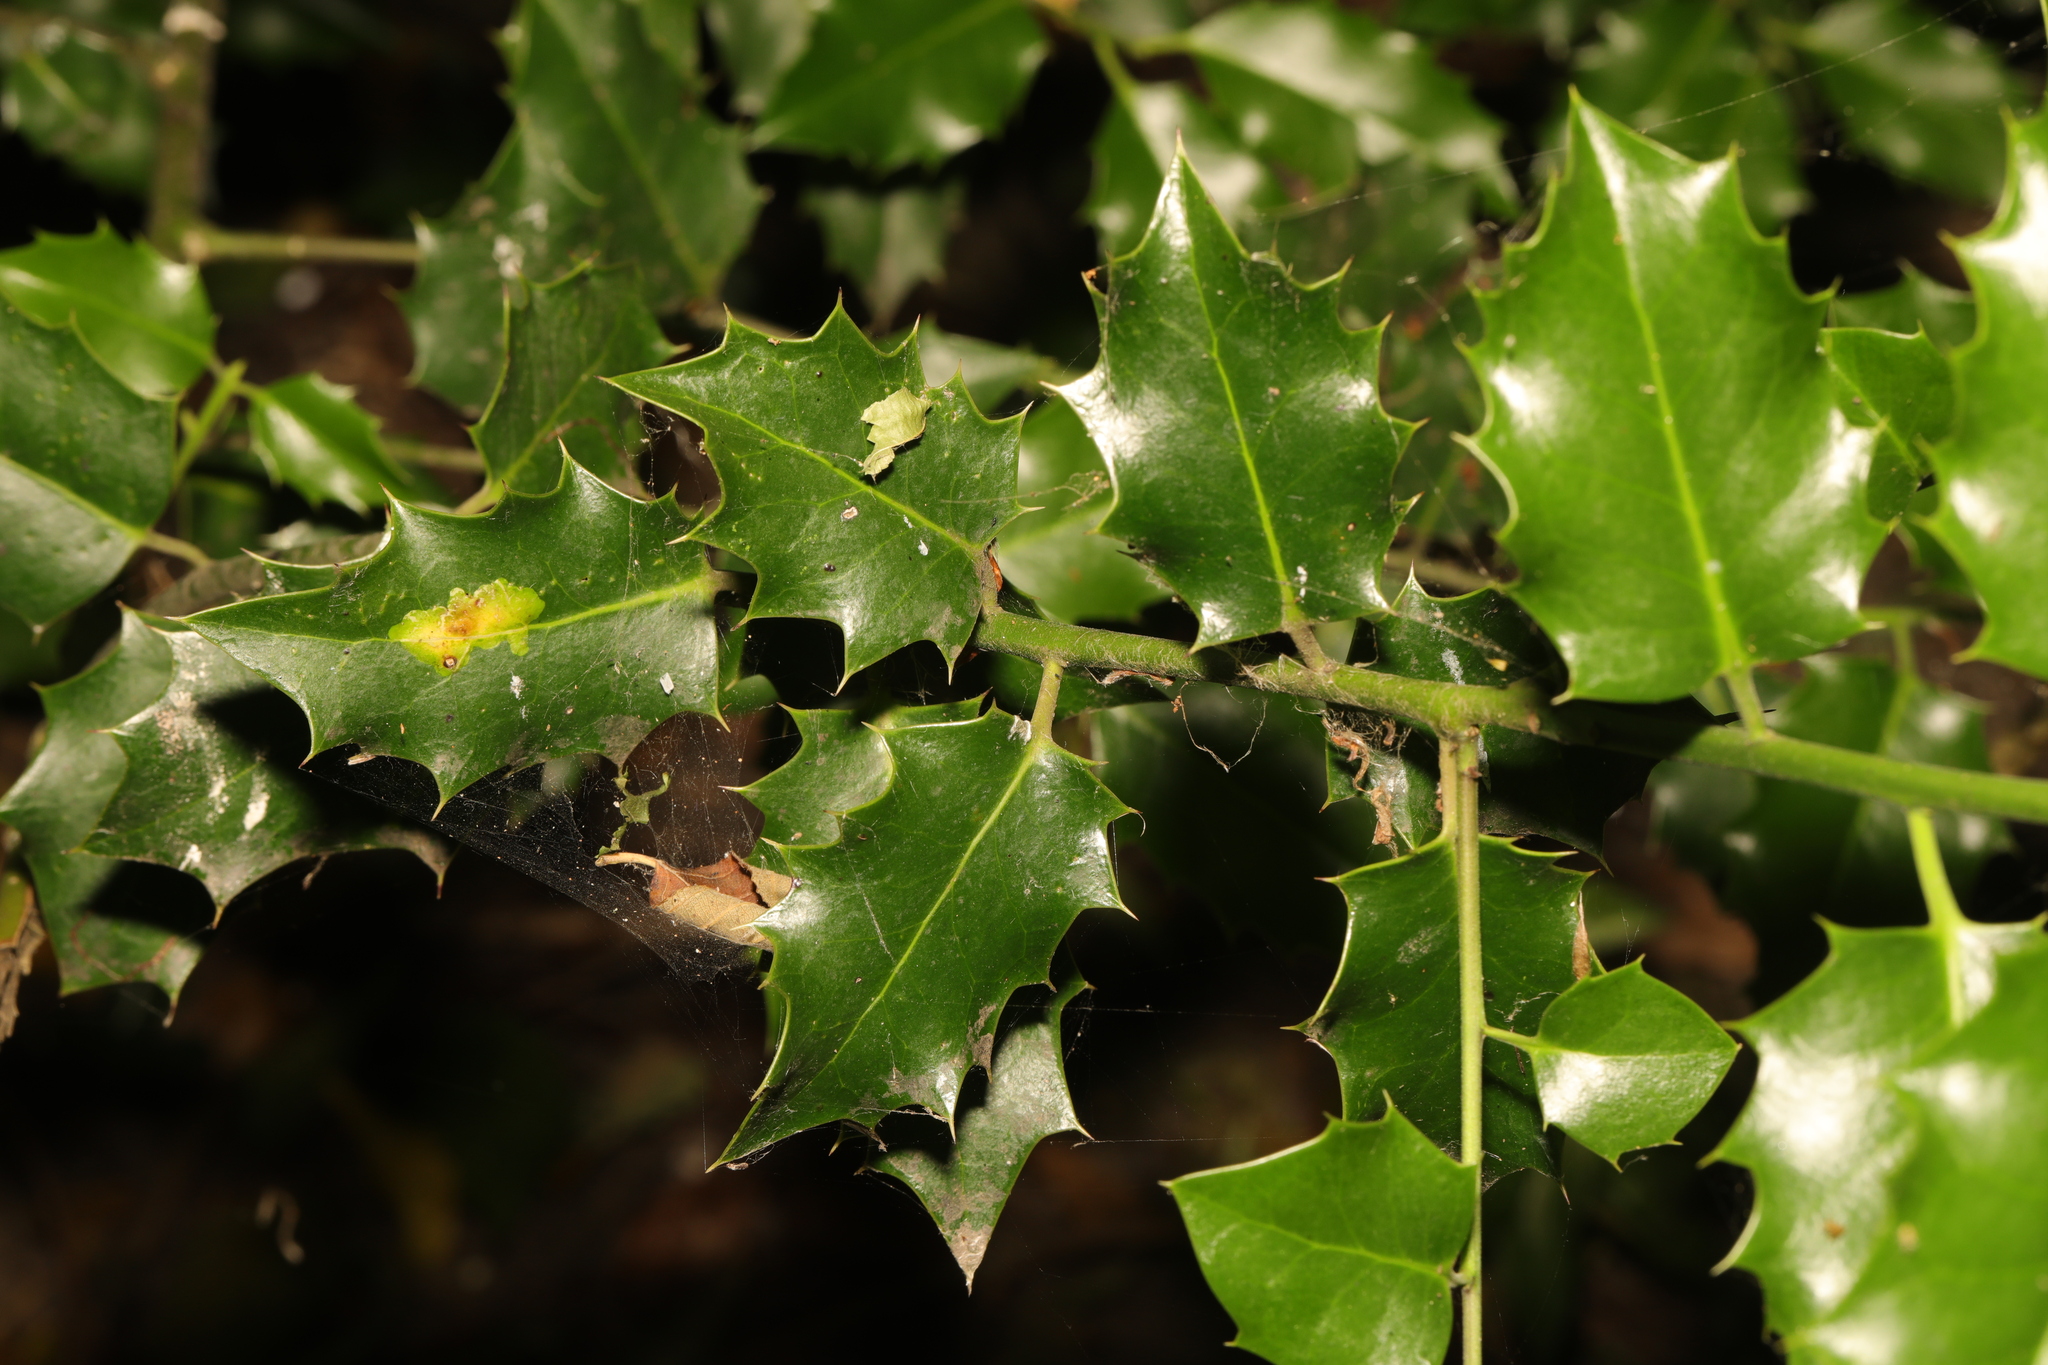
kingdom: Plantae
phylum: Tracheophyta
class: Magnoliopsida
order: Aquifoliales
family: Aquifoliaceae
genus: Ilex
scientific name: Ilex aquifolium
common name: English holly
